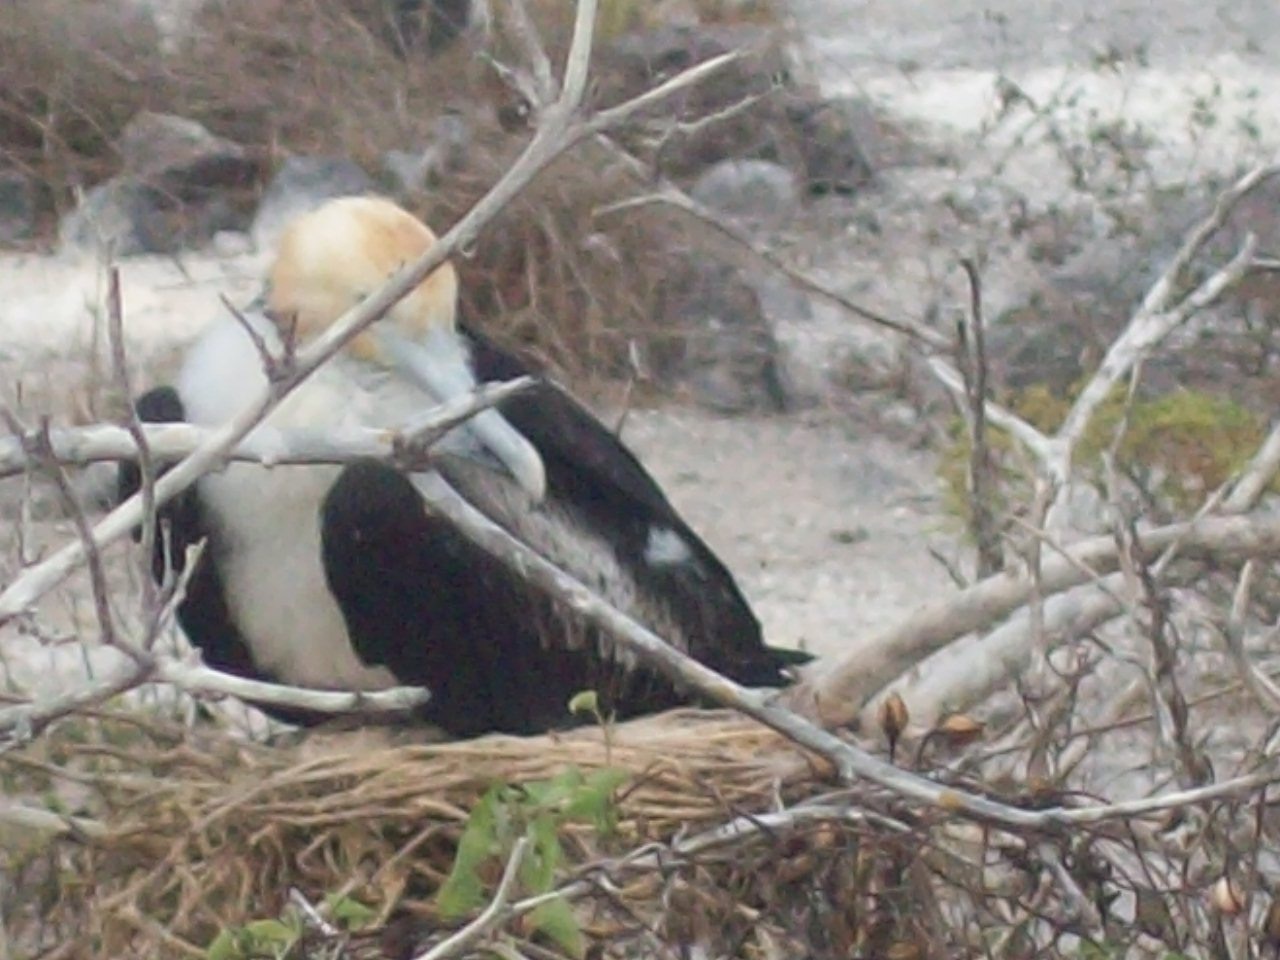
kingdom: Animalia
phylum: Chordata
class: Aves
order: Suliformes
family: Fregatidae
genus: Fregata
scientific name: Fregata minor
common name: Great frigatebird
